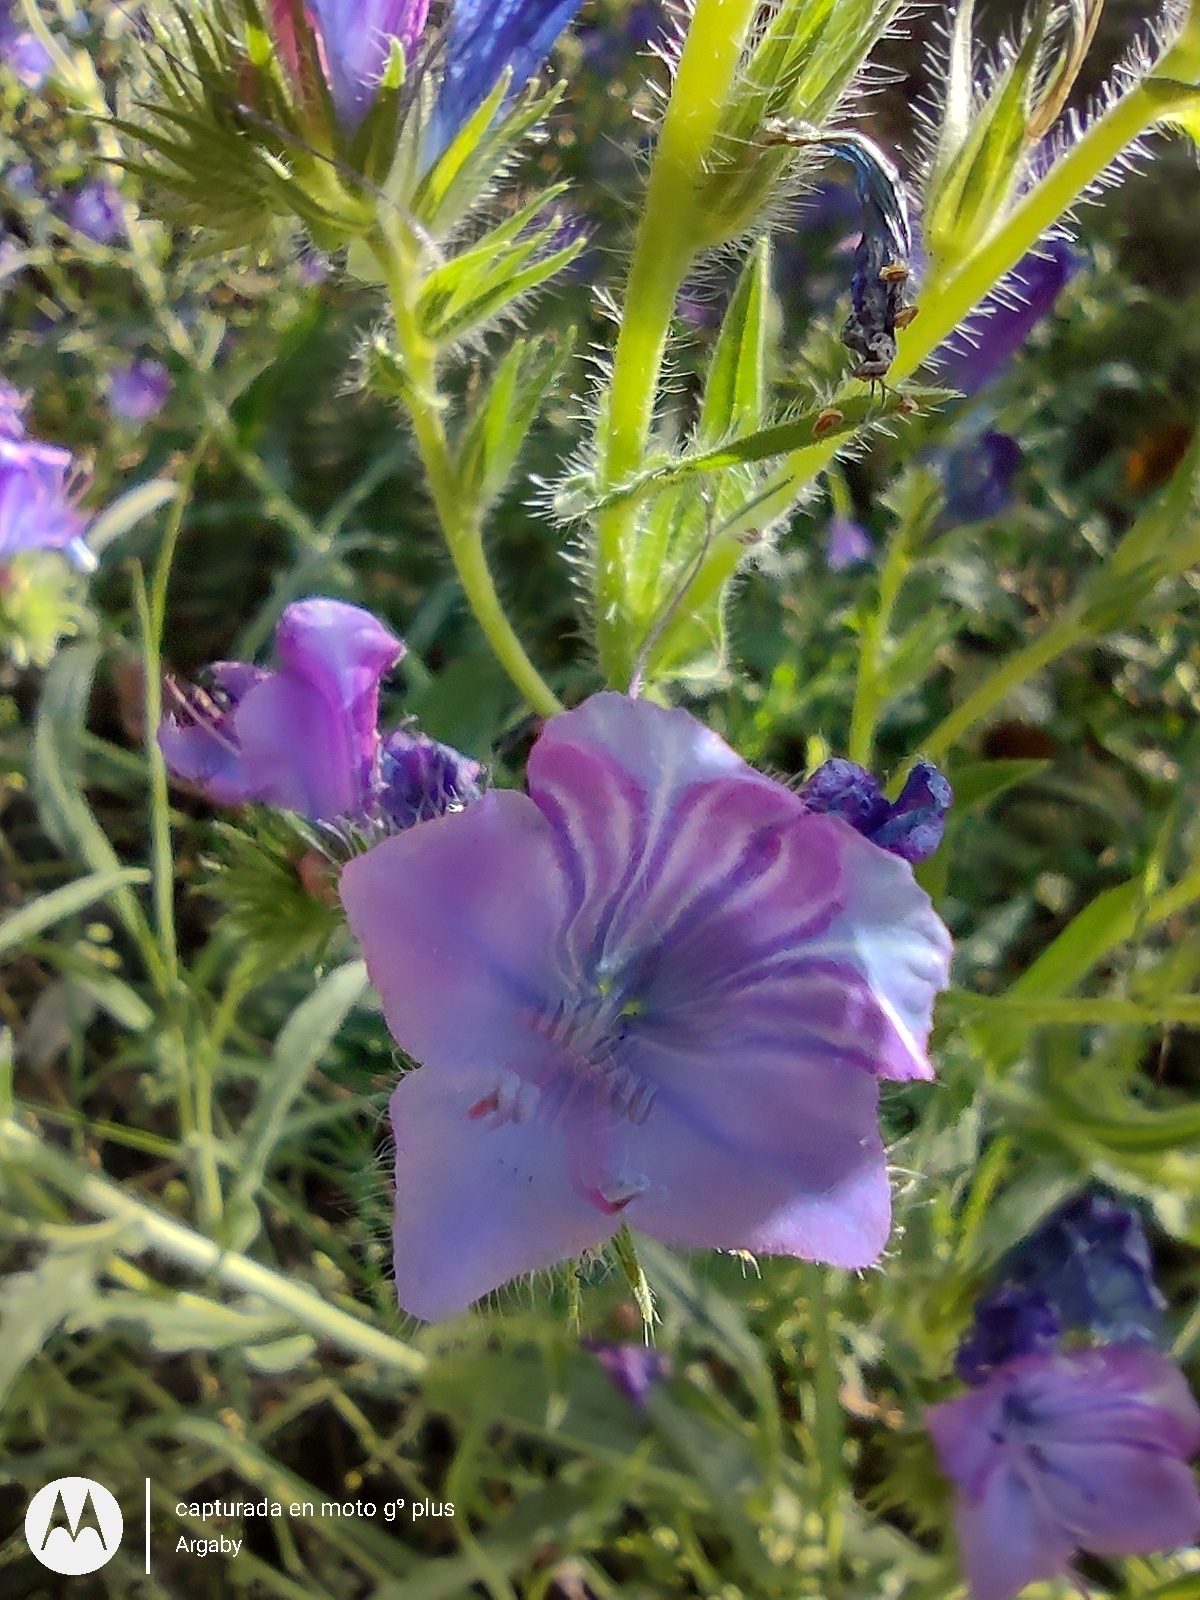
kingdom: Plantae
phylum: Tracheophyta
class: Magnoliopsida
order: Boraginales
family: Boraginaceae
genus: Echium
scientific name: Echium plantagineum
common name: Purple viper's-bugloss
